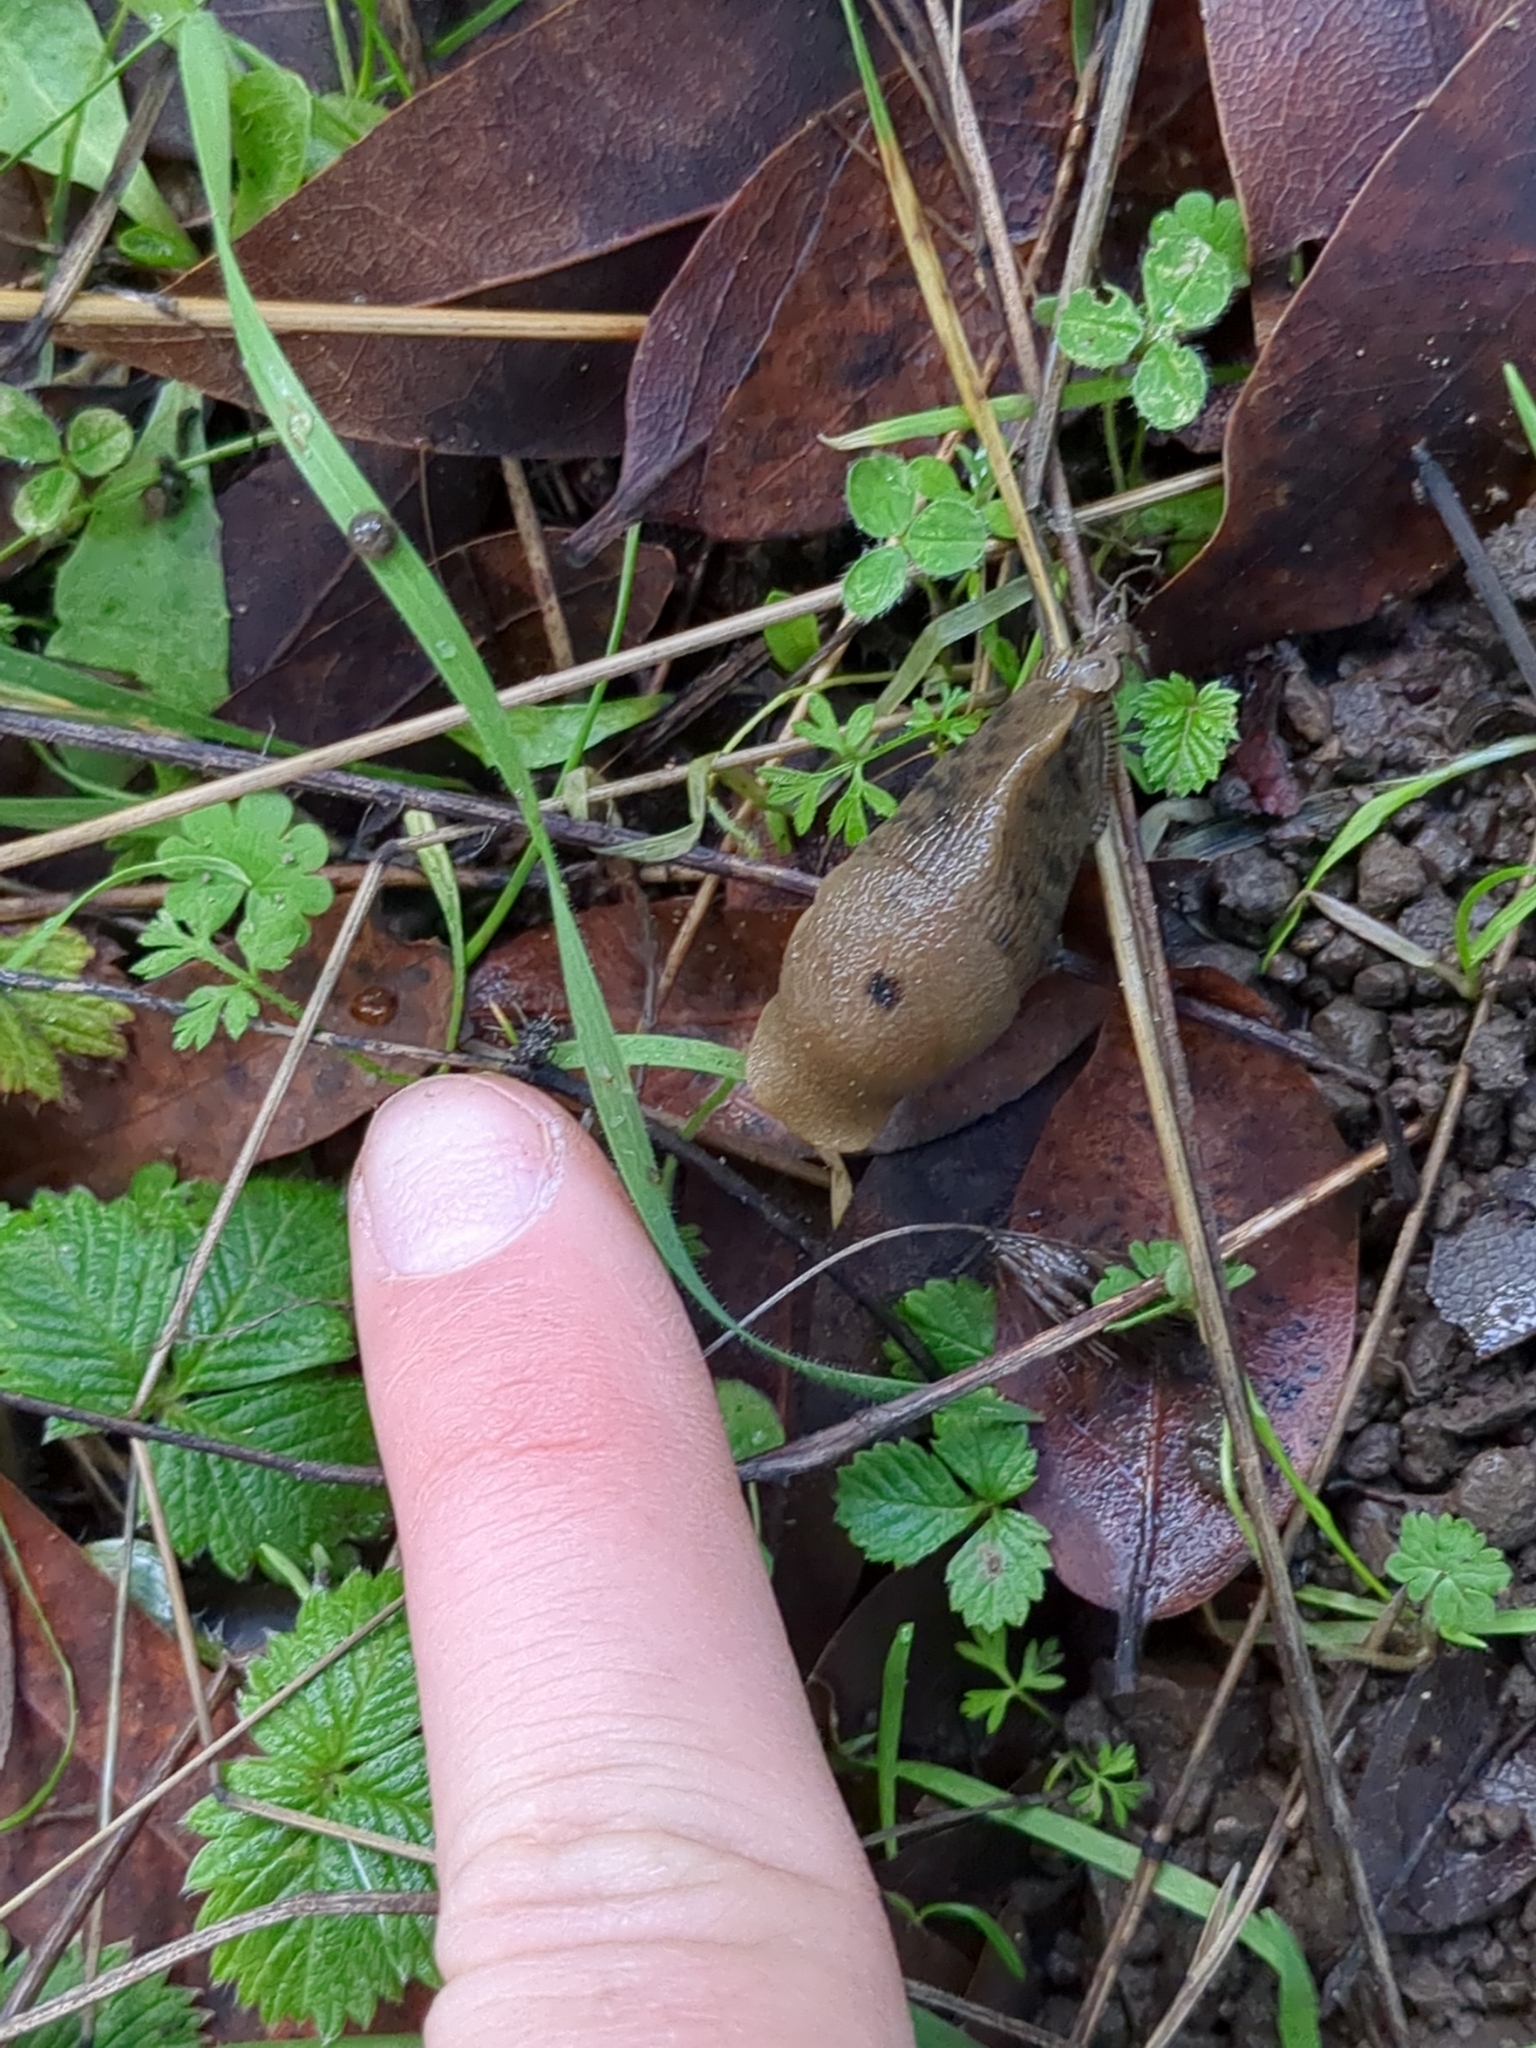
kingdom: Animalia
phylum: Mollusca
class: Gastropoda
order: Stylommatophora
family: Ariolimacidae
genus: Ariolimax
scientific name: Ariolimax buttoni
